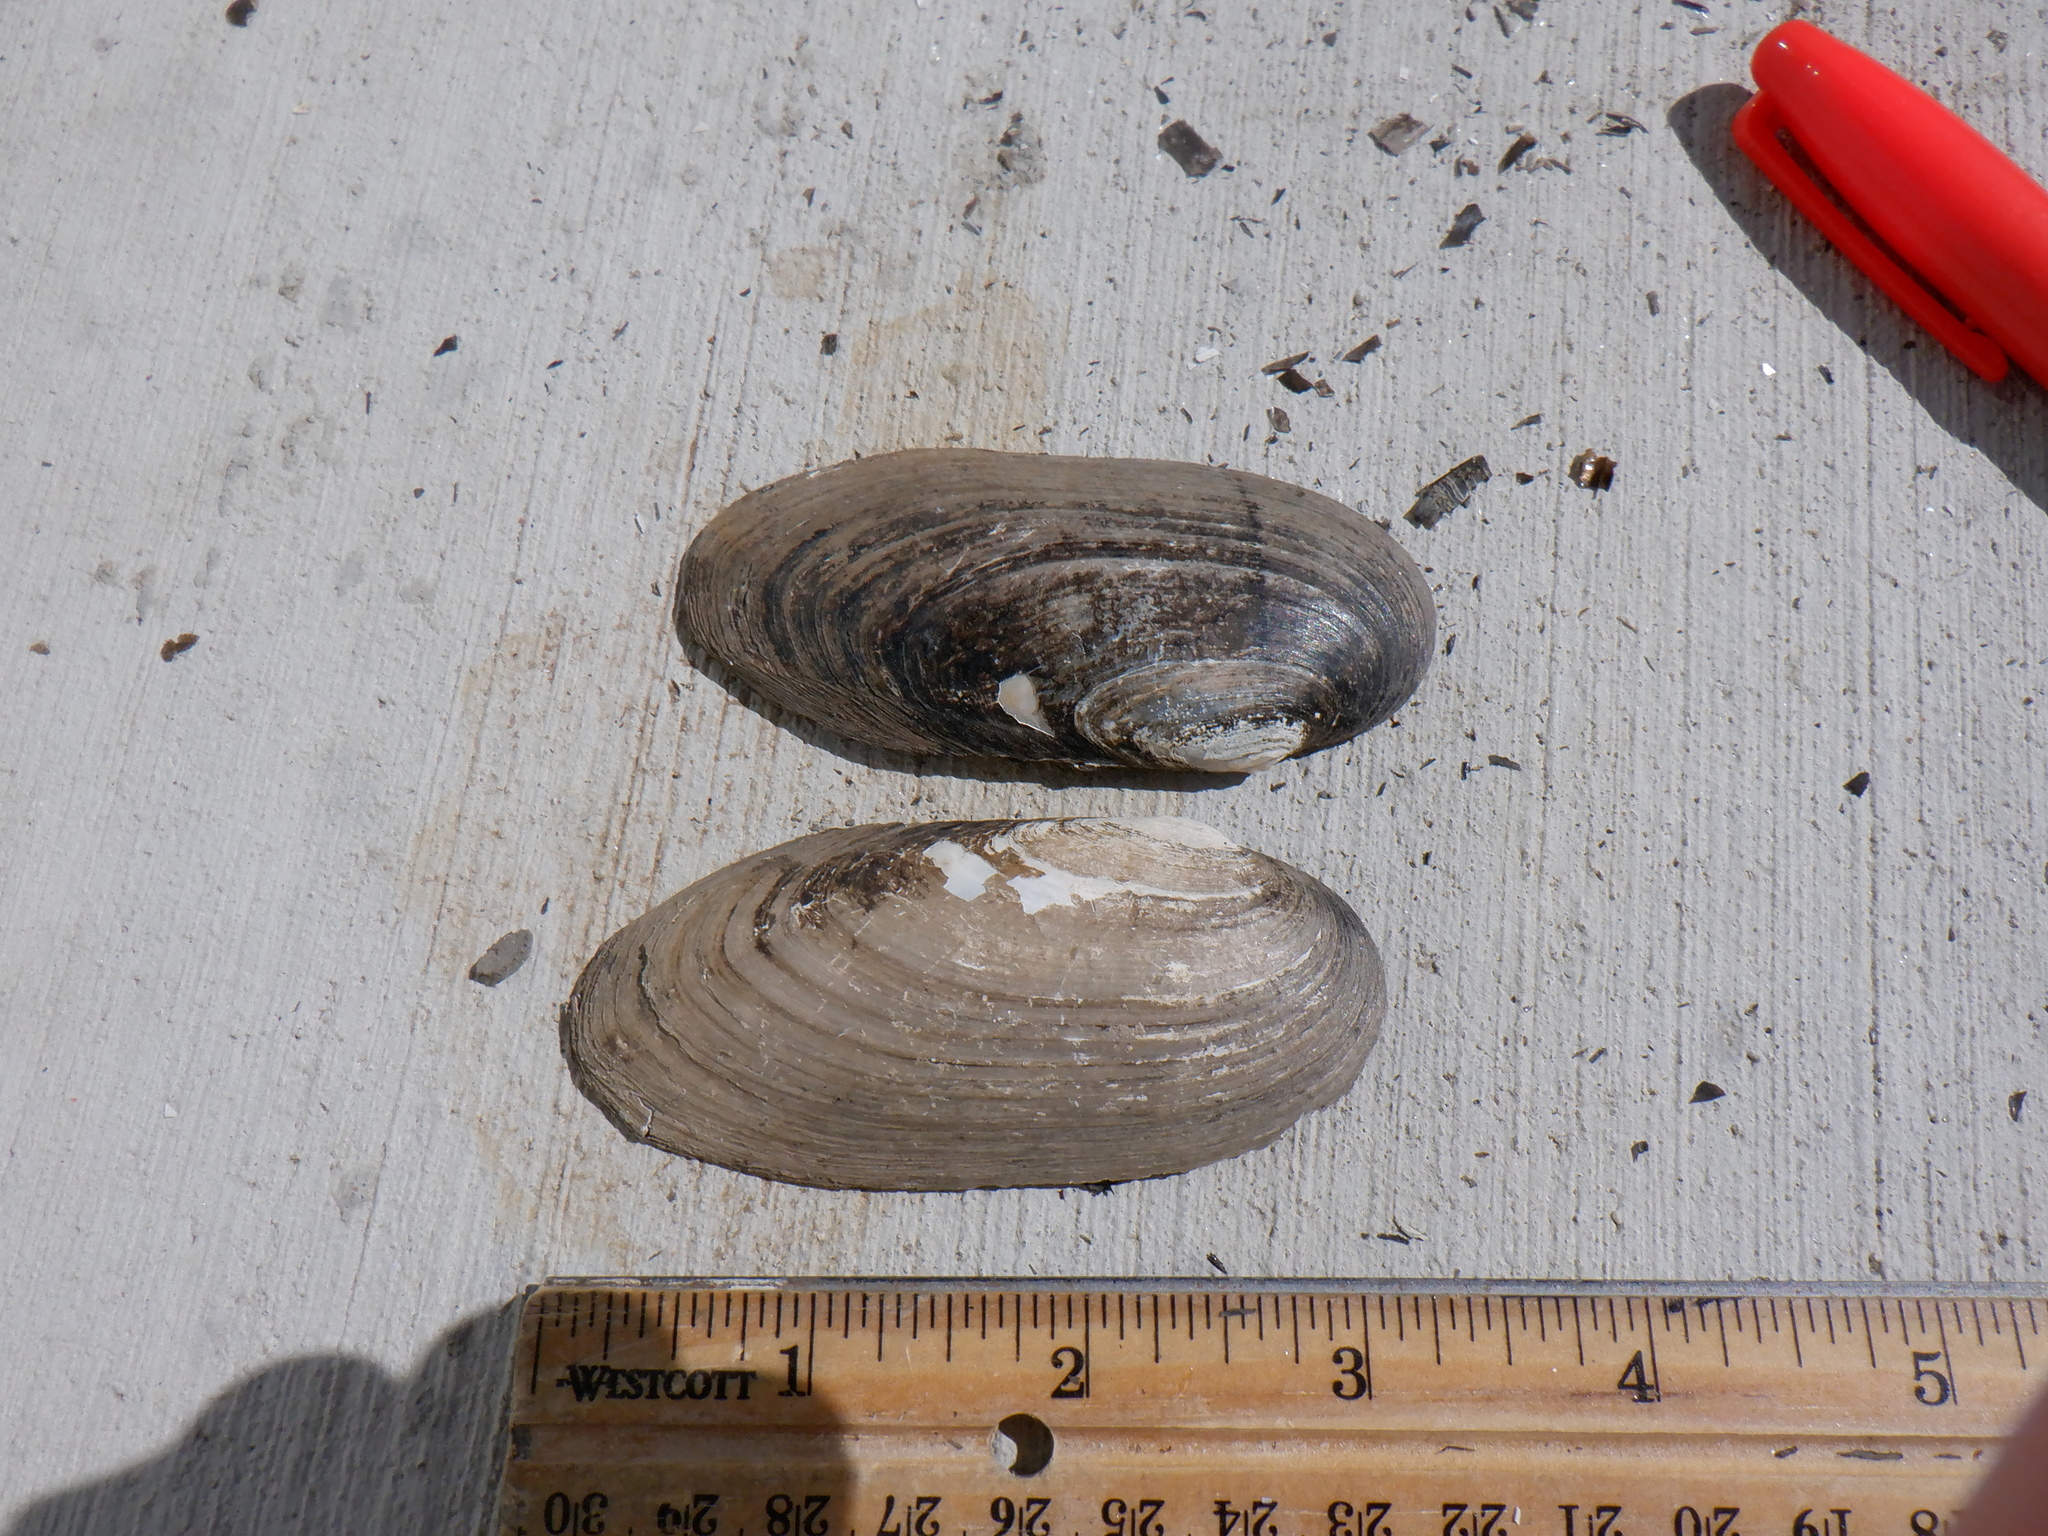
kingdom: Animalia
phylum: Mollusca
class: Bivalvia
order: Unionida
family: Unionidae
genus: Eurynia
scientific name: Eurynia dilatata
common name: Spike
